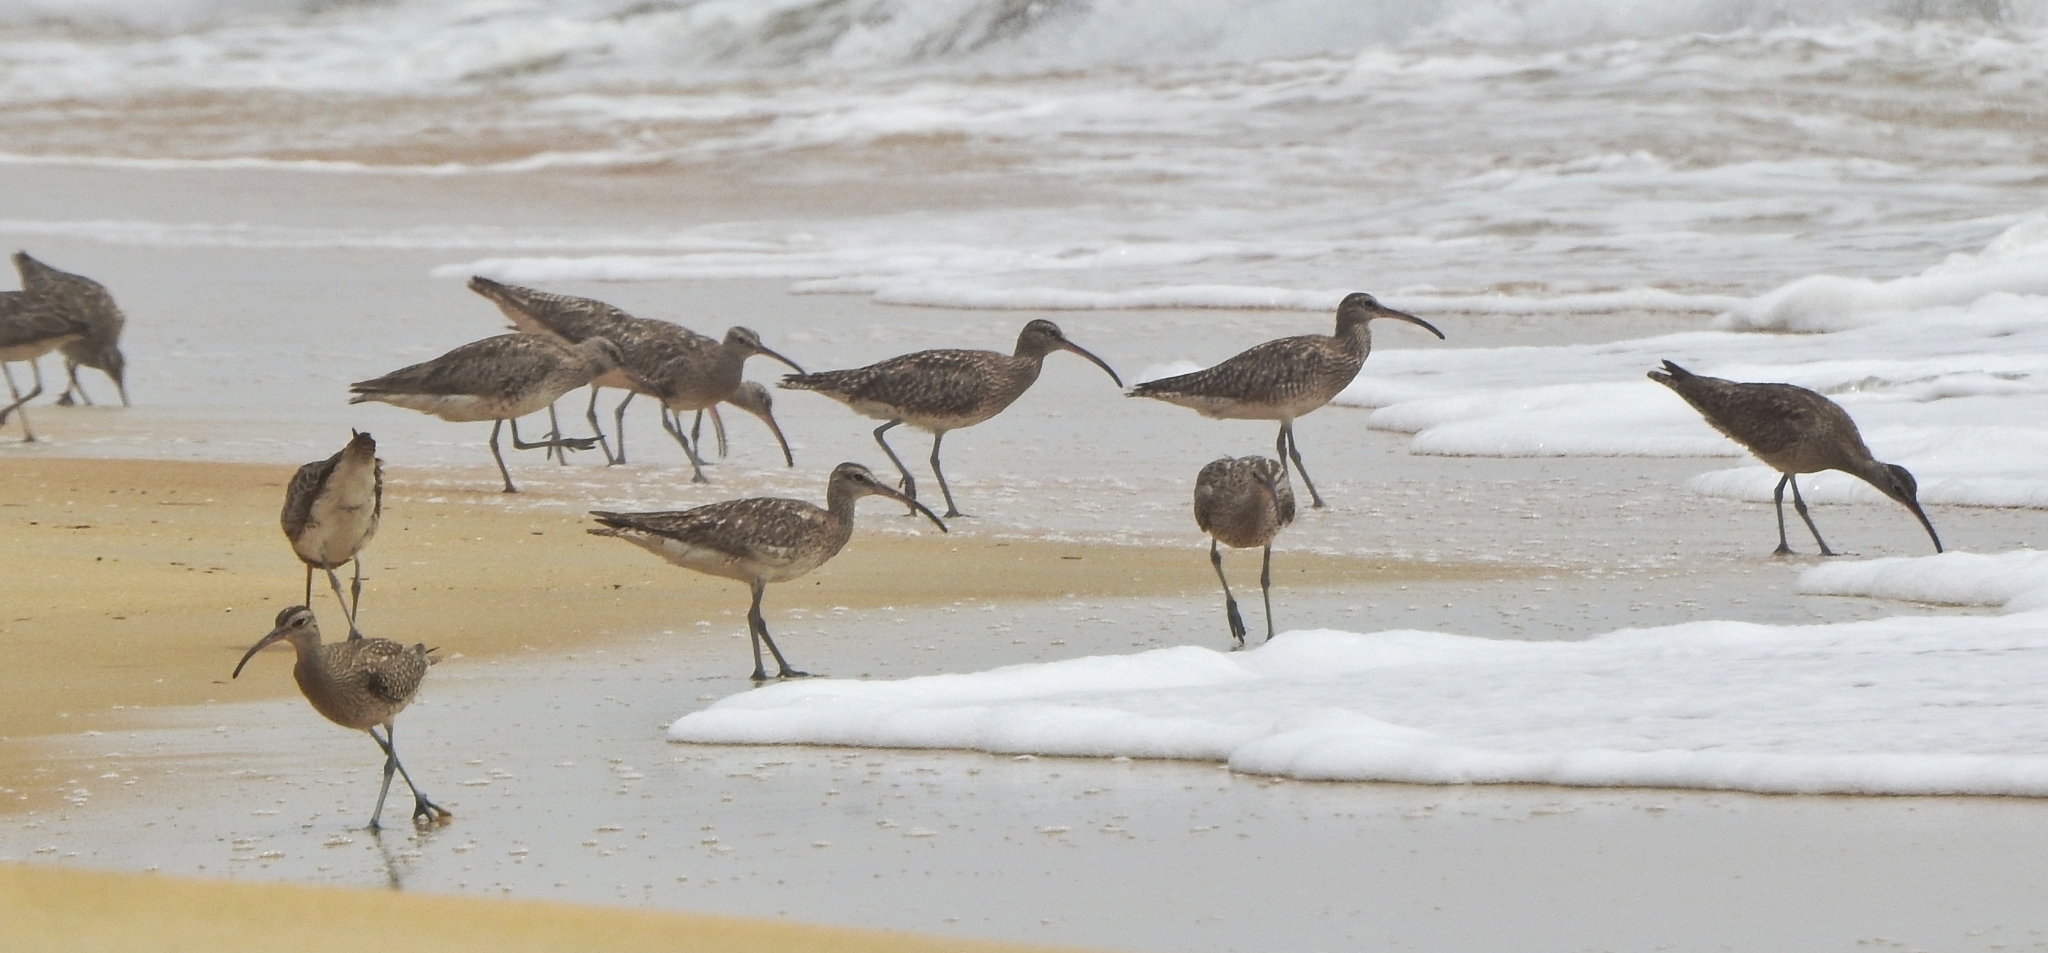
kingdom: Animalia
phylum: Chordata
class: Aves
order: Charadriiformes
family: Scolopacidae
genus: Numenius
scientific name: Numenius phaeopus
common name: Whimbrel
